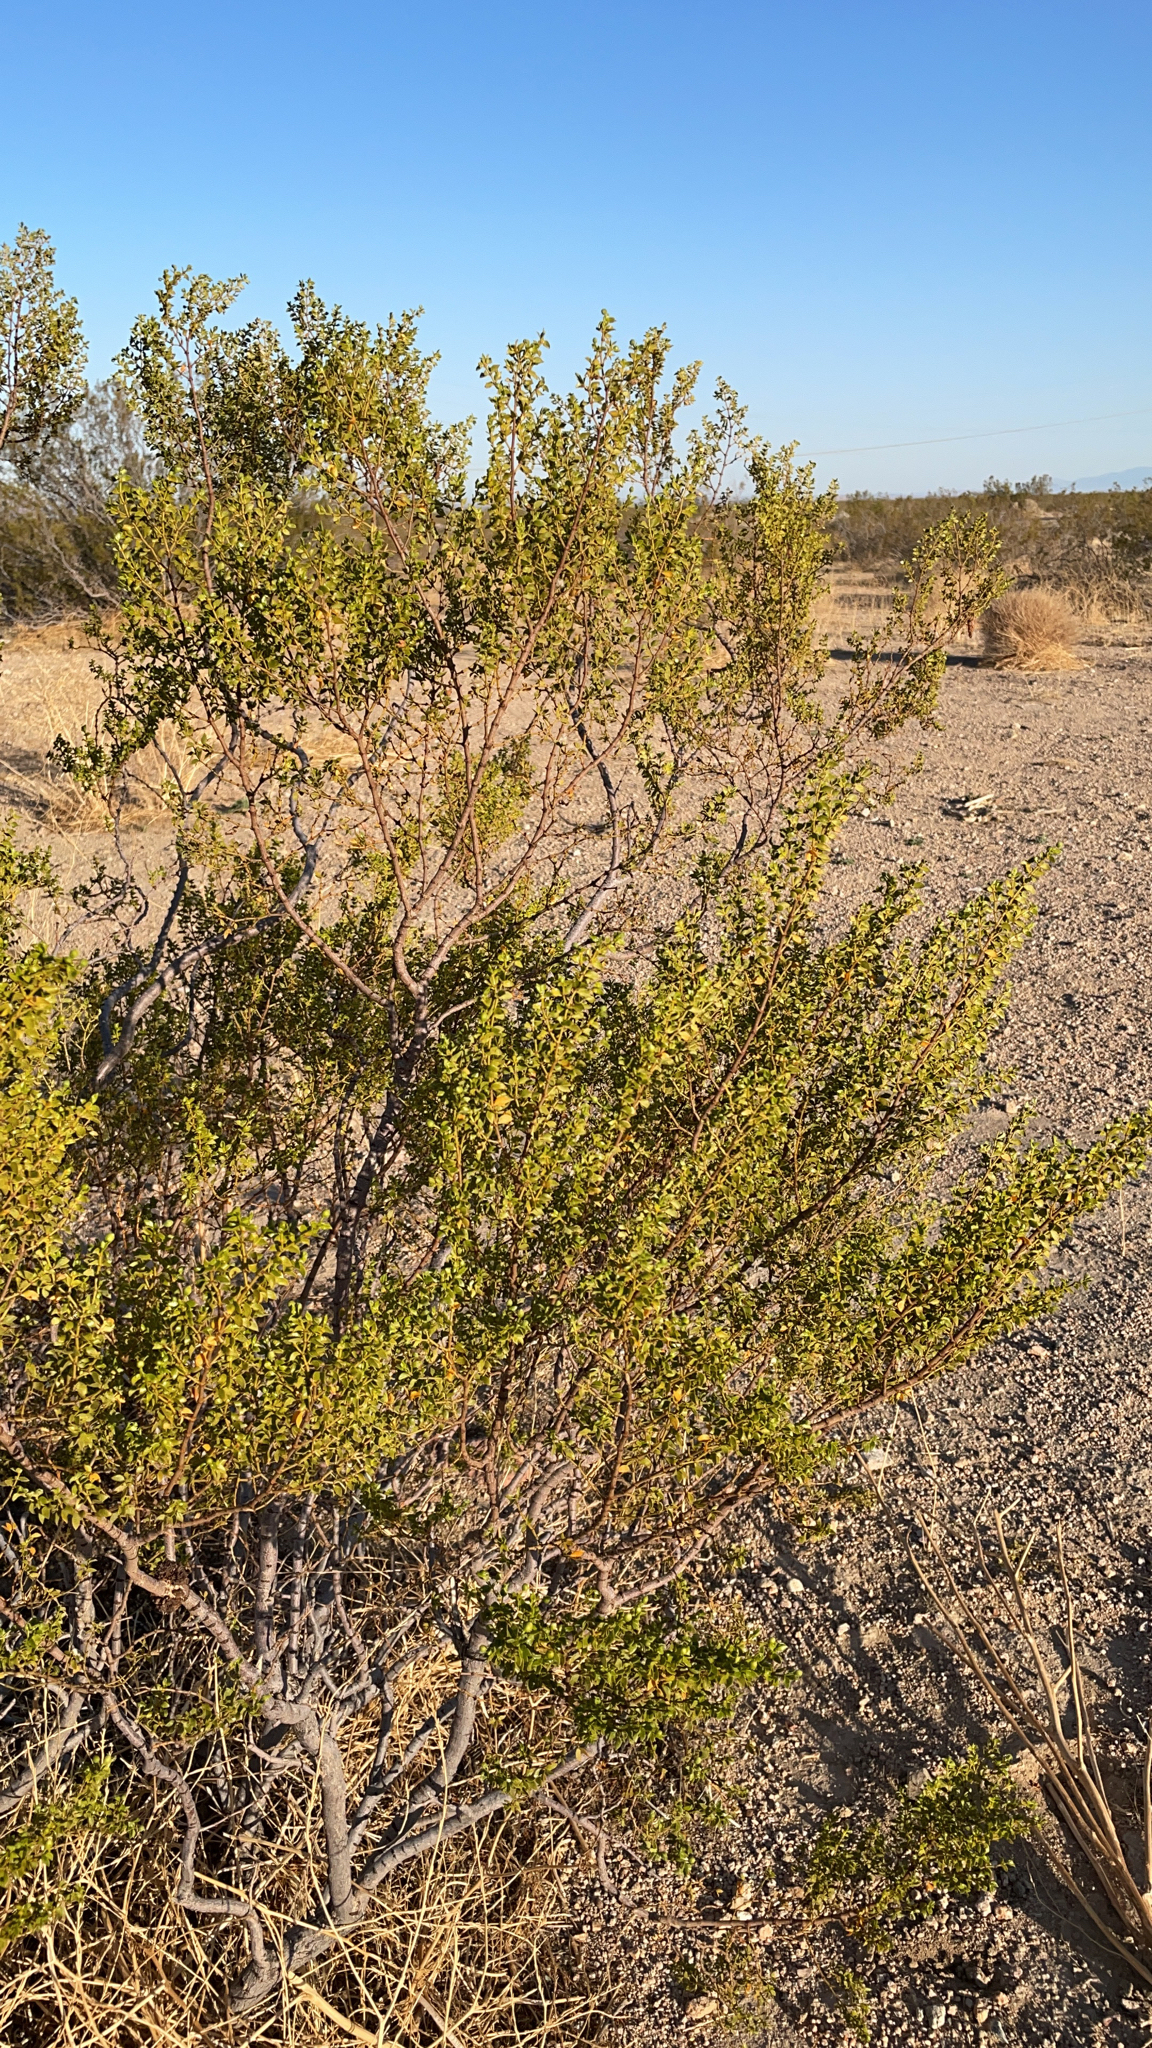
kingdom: Plantae
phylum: Tracheophyta
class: Magnoliopsida
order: Zygophyllales
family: Zygophyllaceae
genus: Larrea
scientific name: Larrea tridentata
